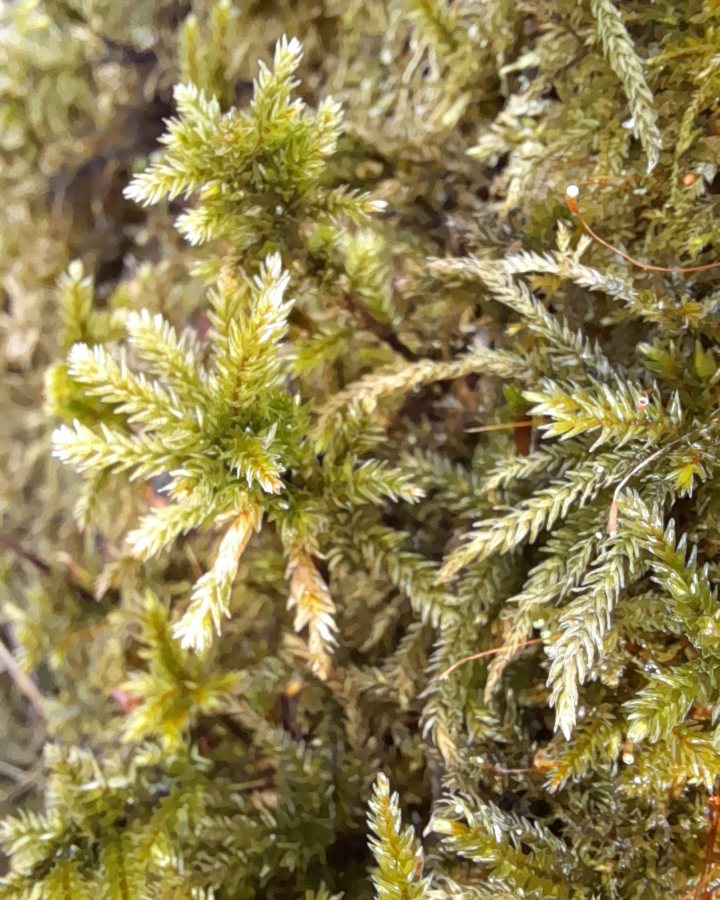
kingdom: Plantae
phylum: Bryophyta
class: Bryopsida
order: Hypnales
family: Climaciaceae
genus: Climacium
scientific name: Climacium dendroides
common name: Northern tree moss
